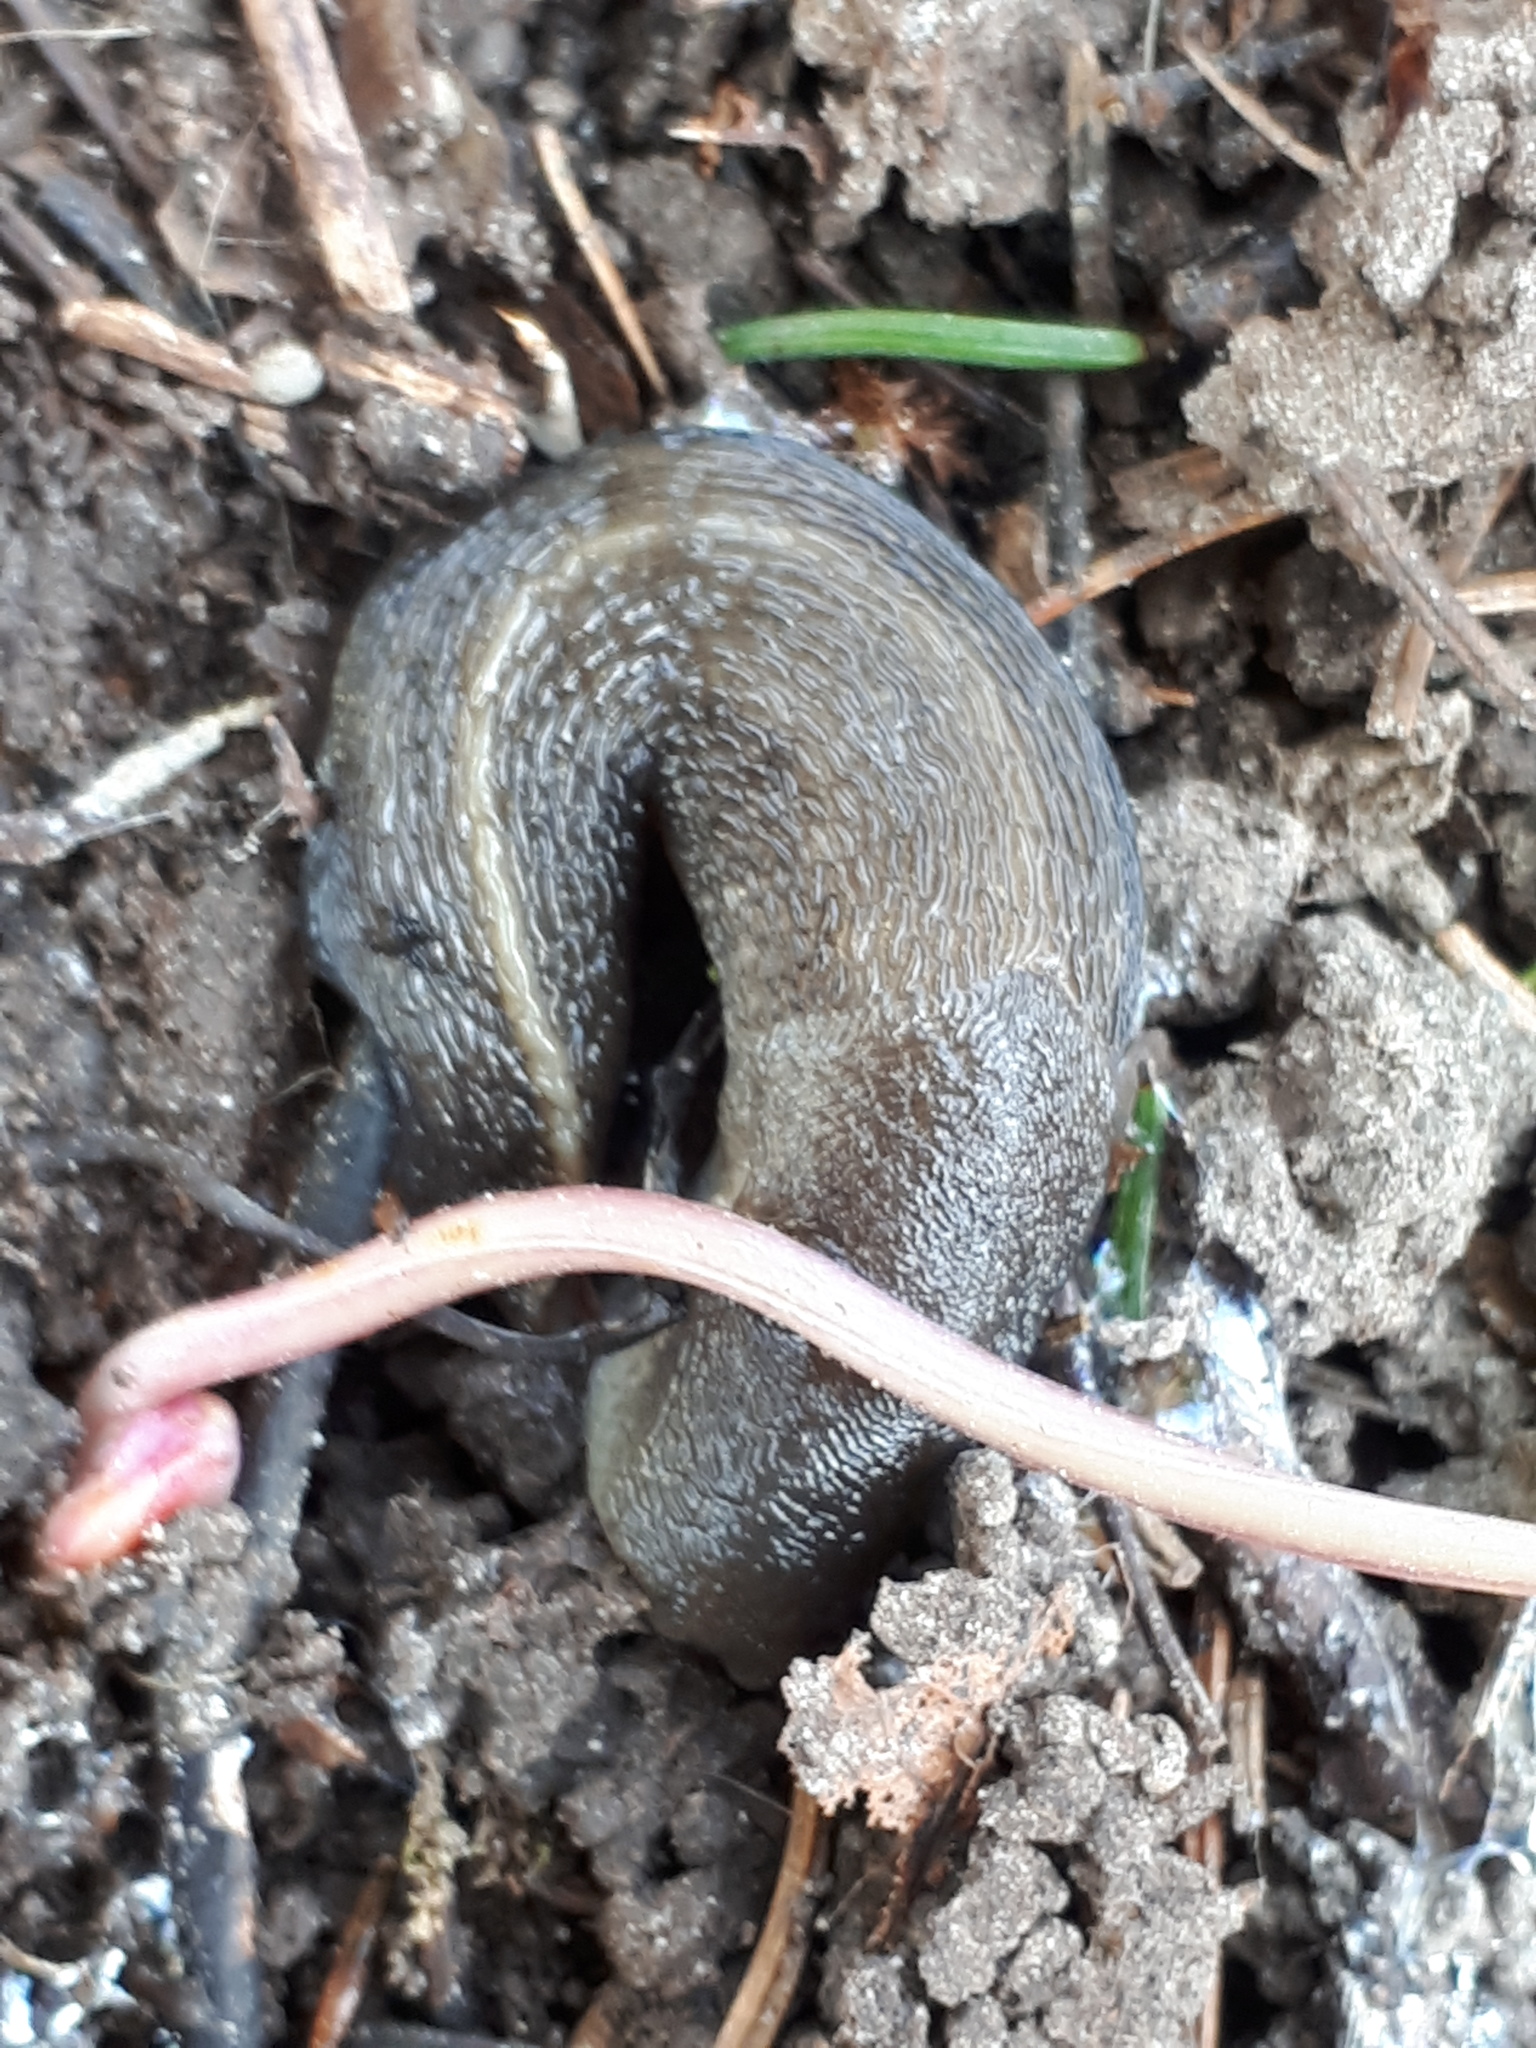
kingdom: Animalia
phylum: Mollusca
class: Gastropoda
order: Stylommatophora
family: Limacidae
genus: Limax
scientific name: Limax cinereoniger
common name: Ash-black slug
